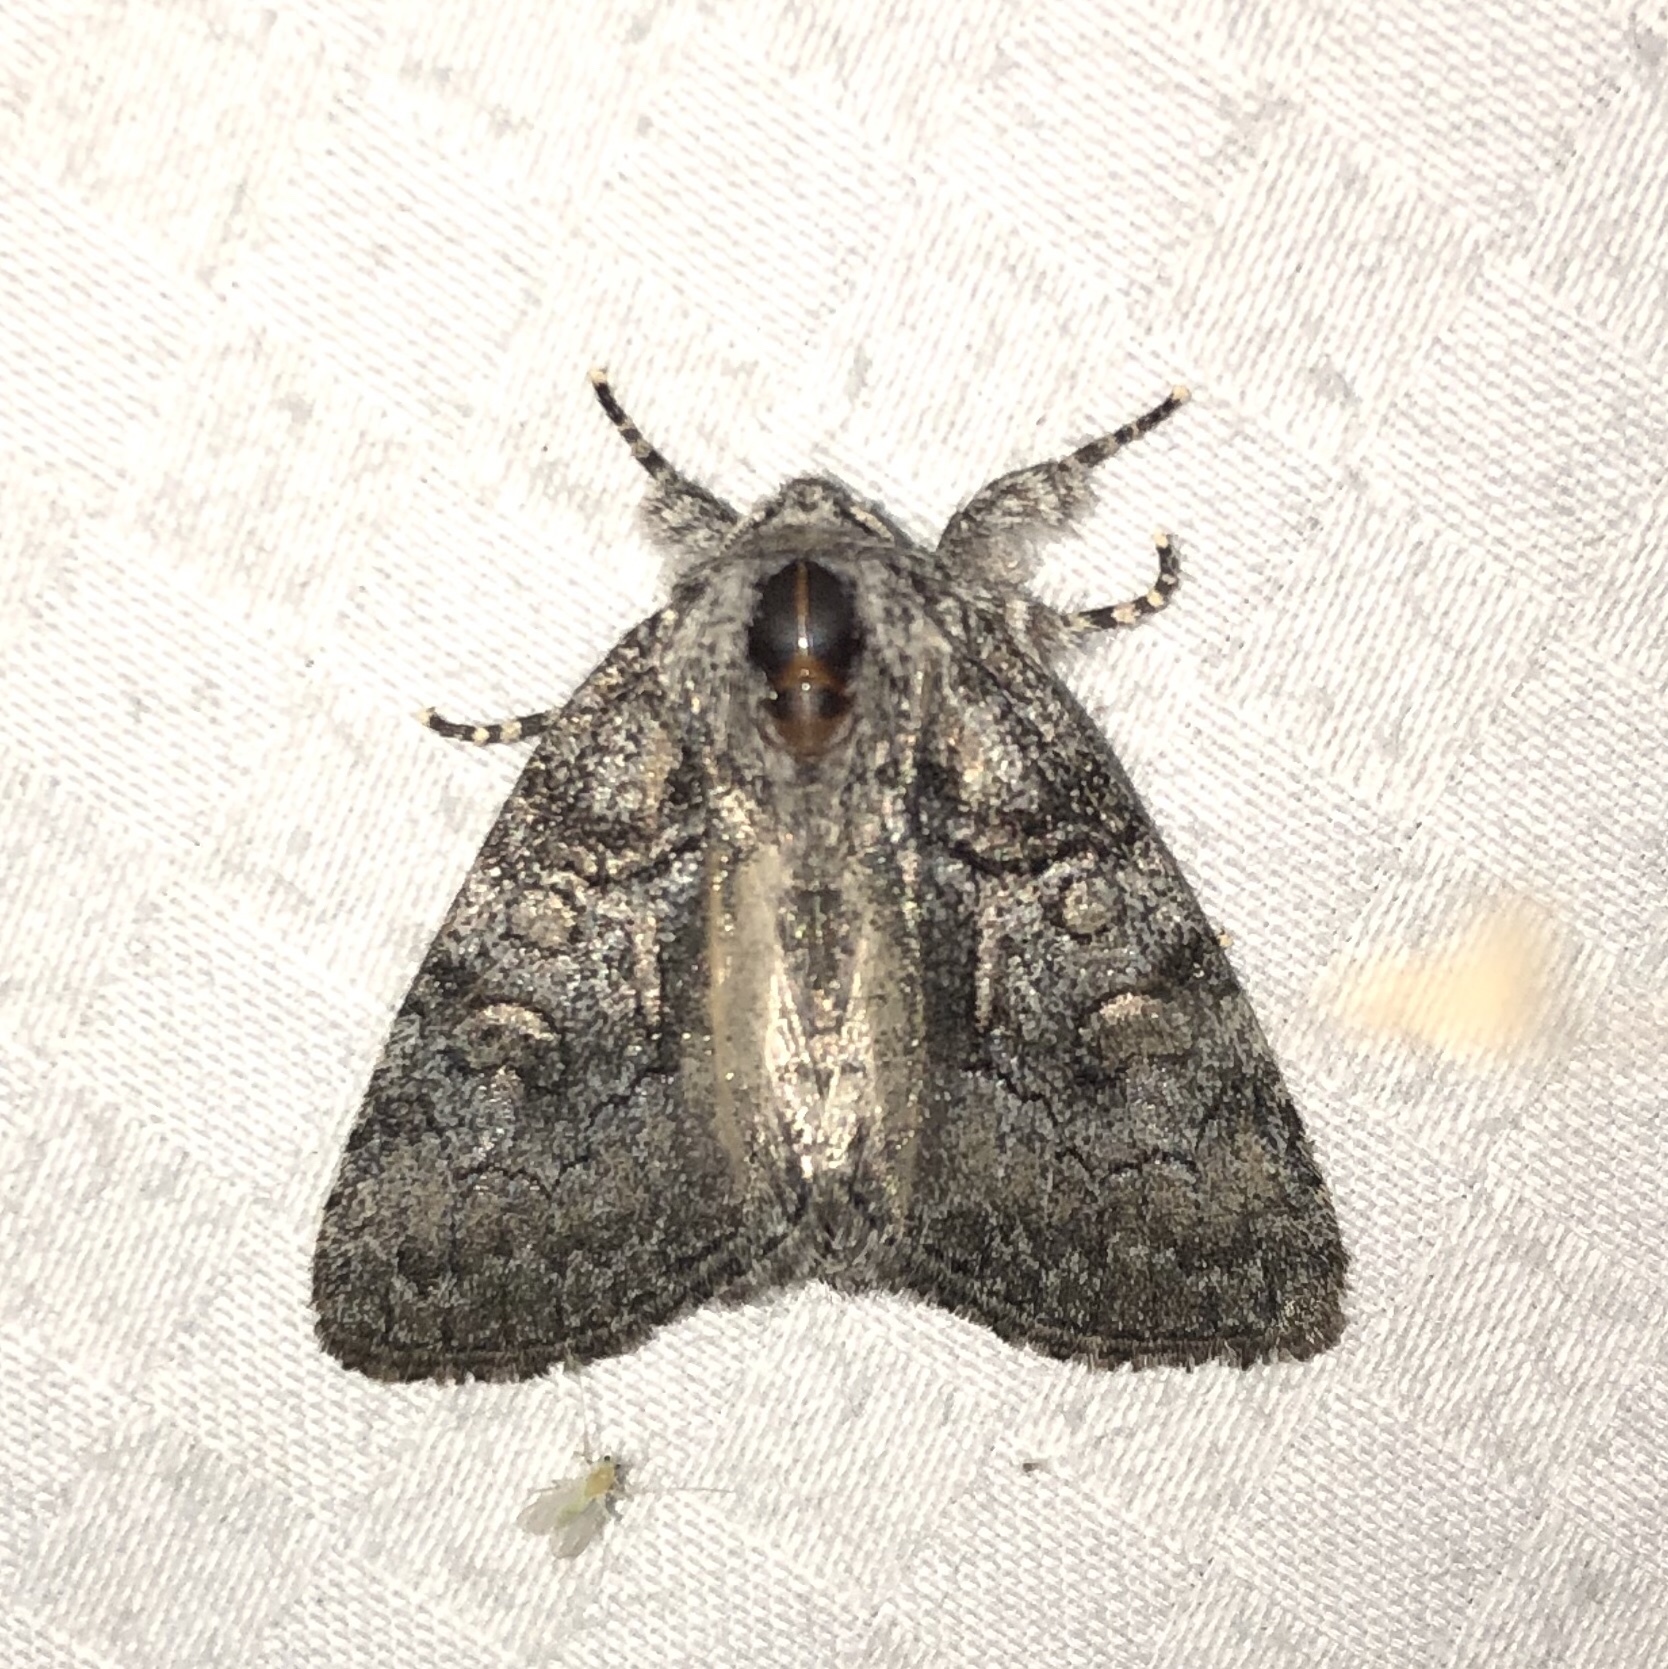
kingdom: Animalia
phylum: Arthropoda
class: Insecta
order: Lepidoptera
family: Noctuidae
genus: Raphia
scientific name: Raphia frater
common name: Brother
